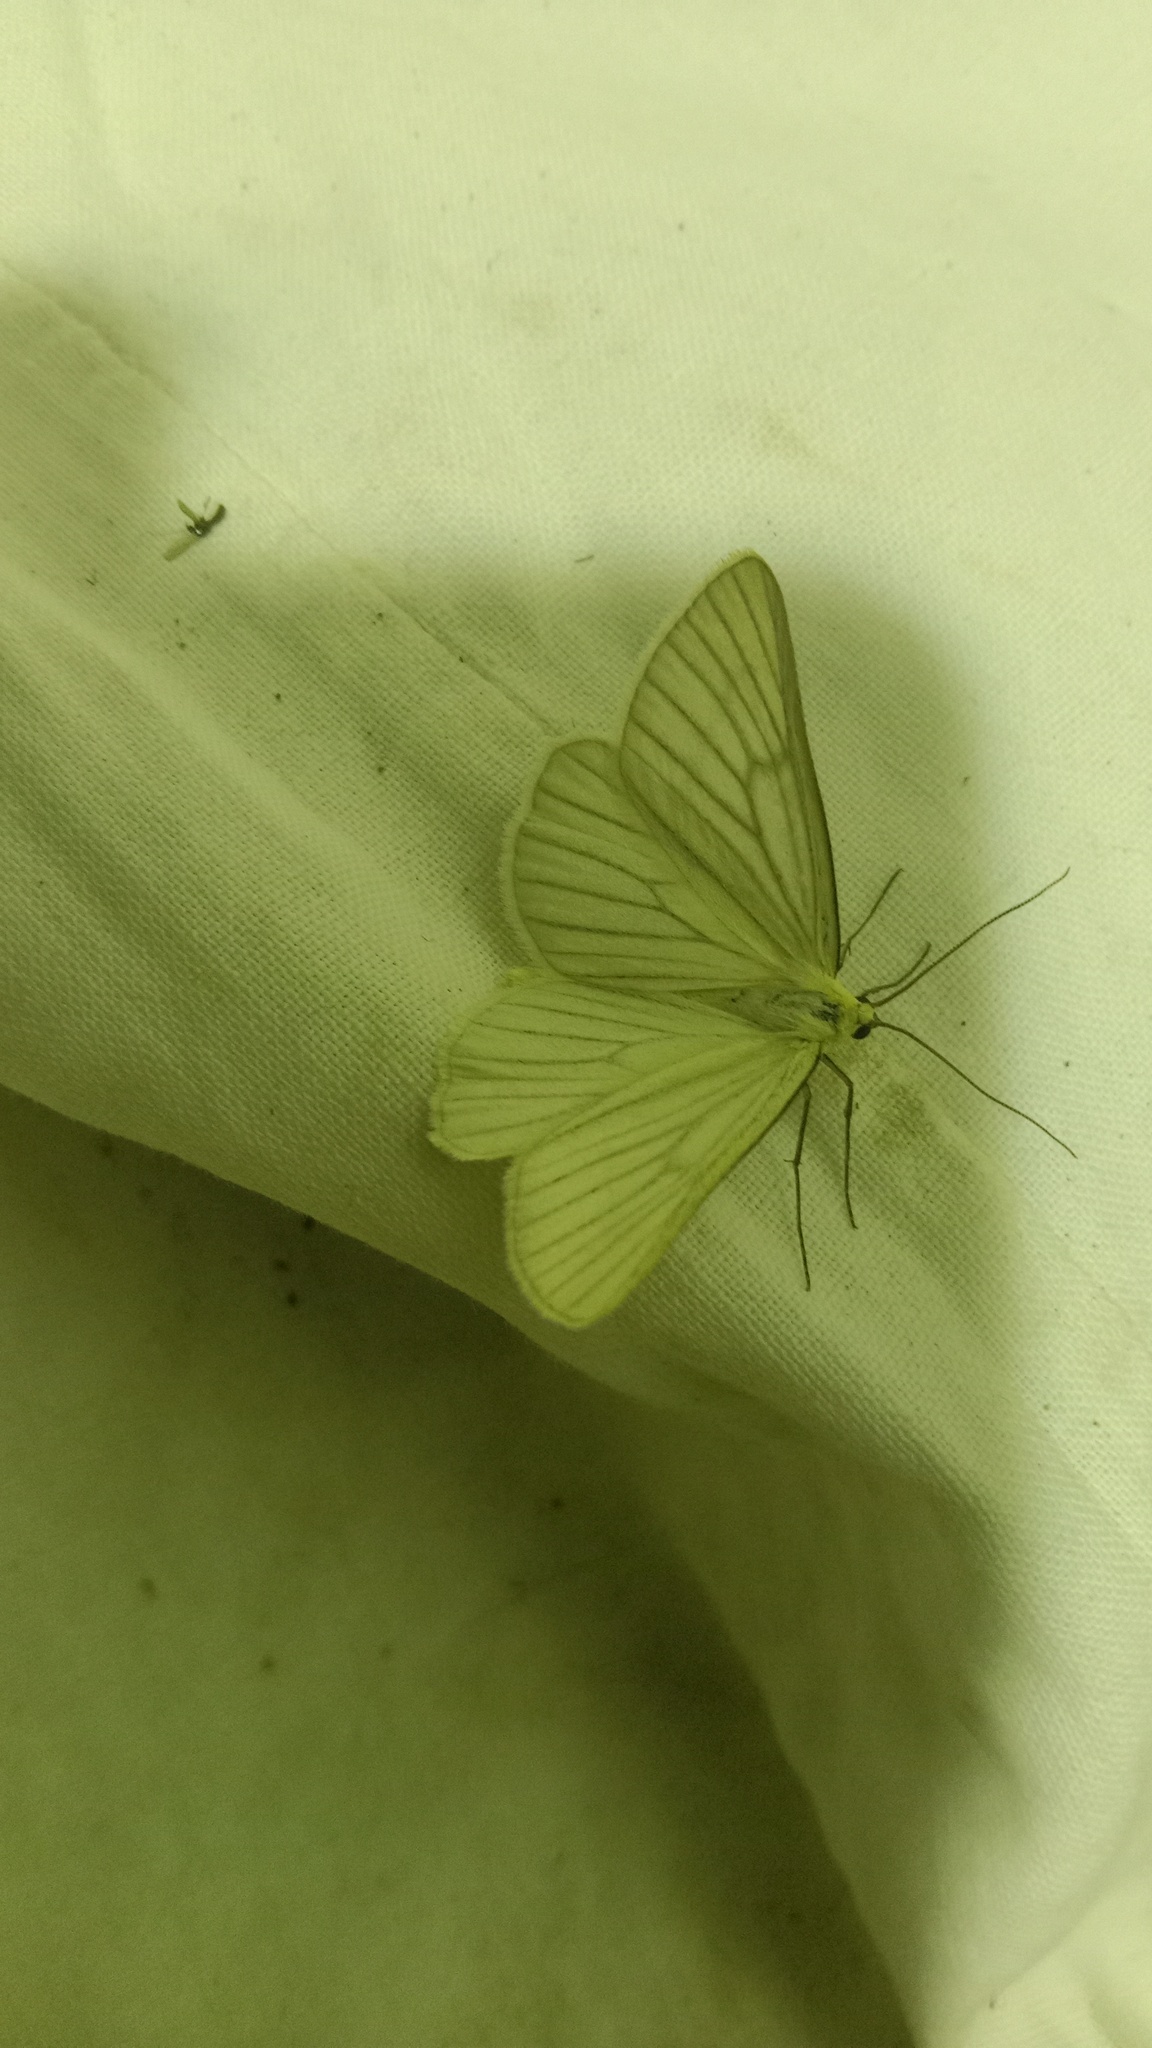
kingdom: Animalia
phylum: Arthropoda
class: Insecta
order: Lepidoptera
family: Geometridae
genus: Siona
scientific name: Siona lineata
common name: Black-veined moth
